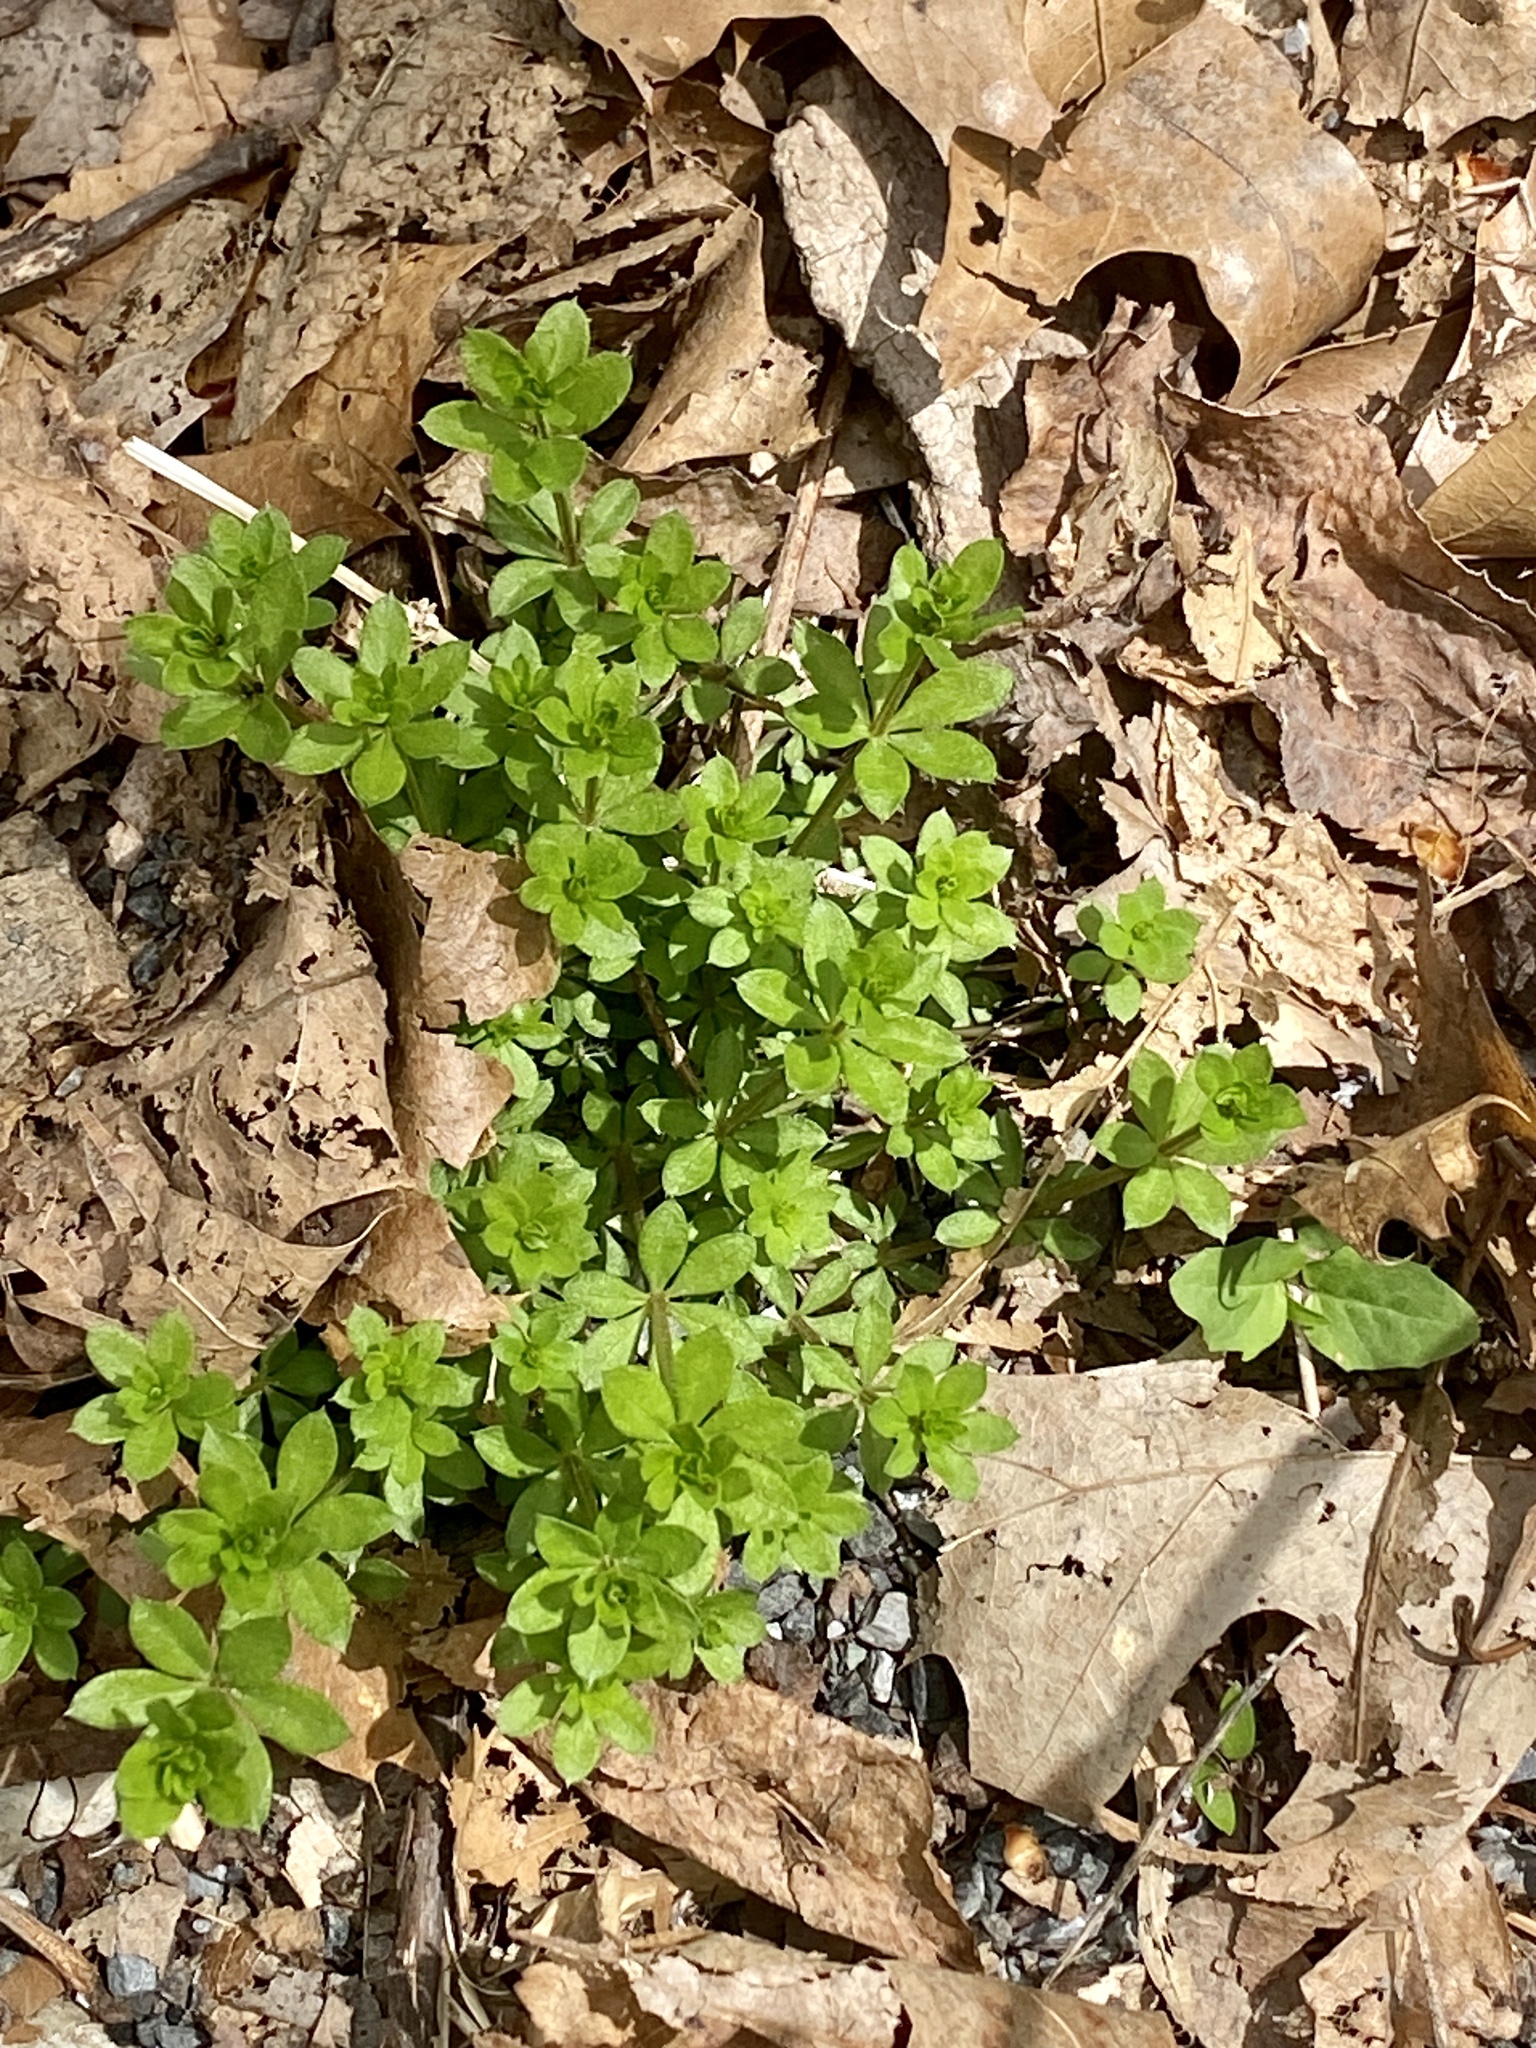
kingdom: Plantae
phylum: Tracheophyta
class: Magnoliopsida
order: Gentianales
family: Rubiaceae
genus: Galium
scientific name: Galium triflorum
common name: Fragrant bedstraw
